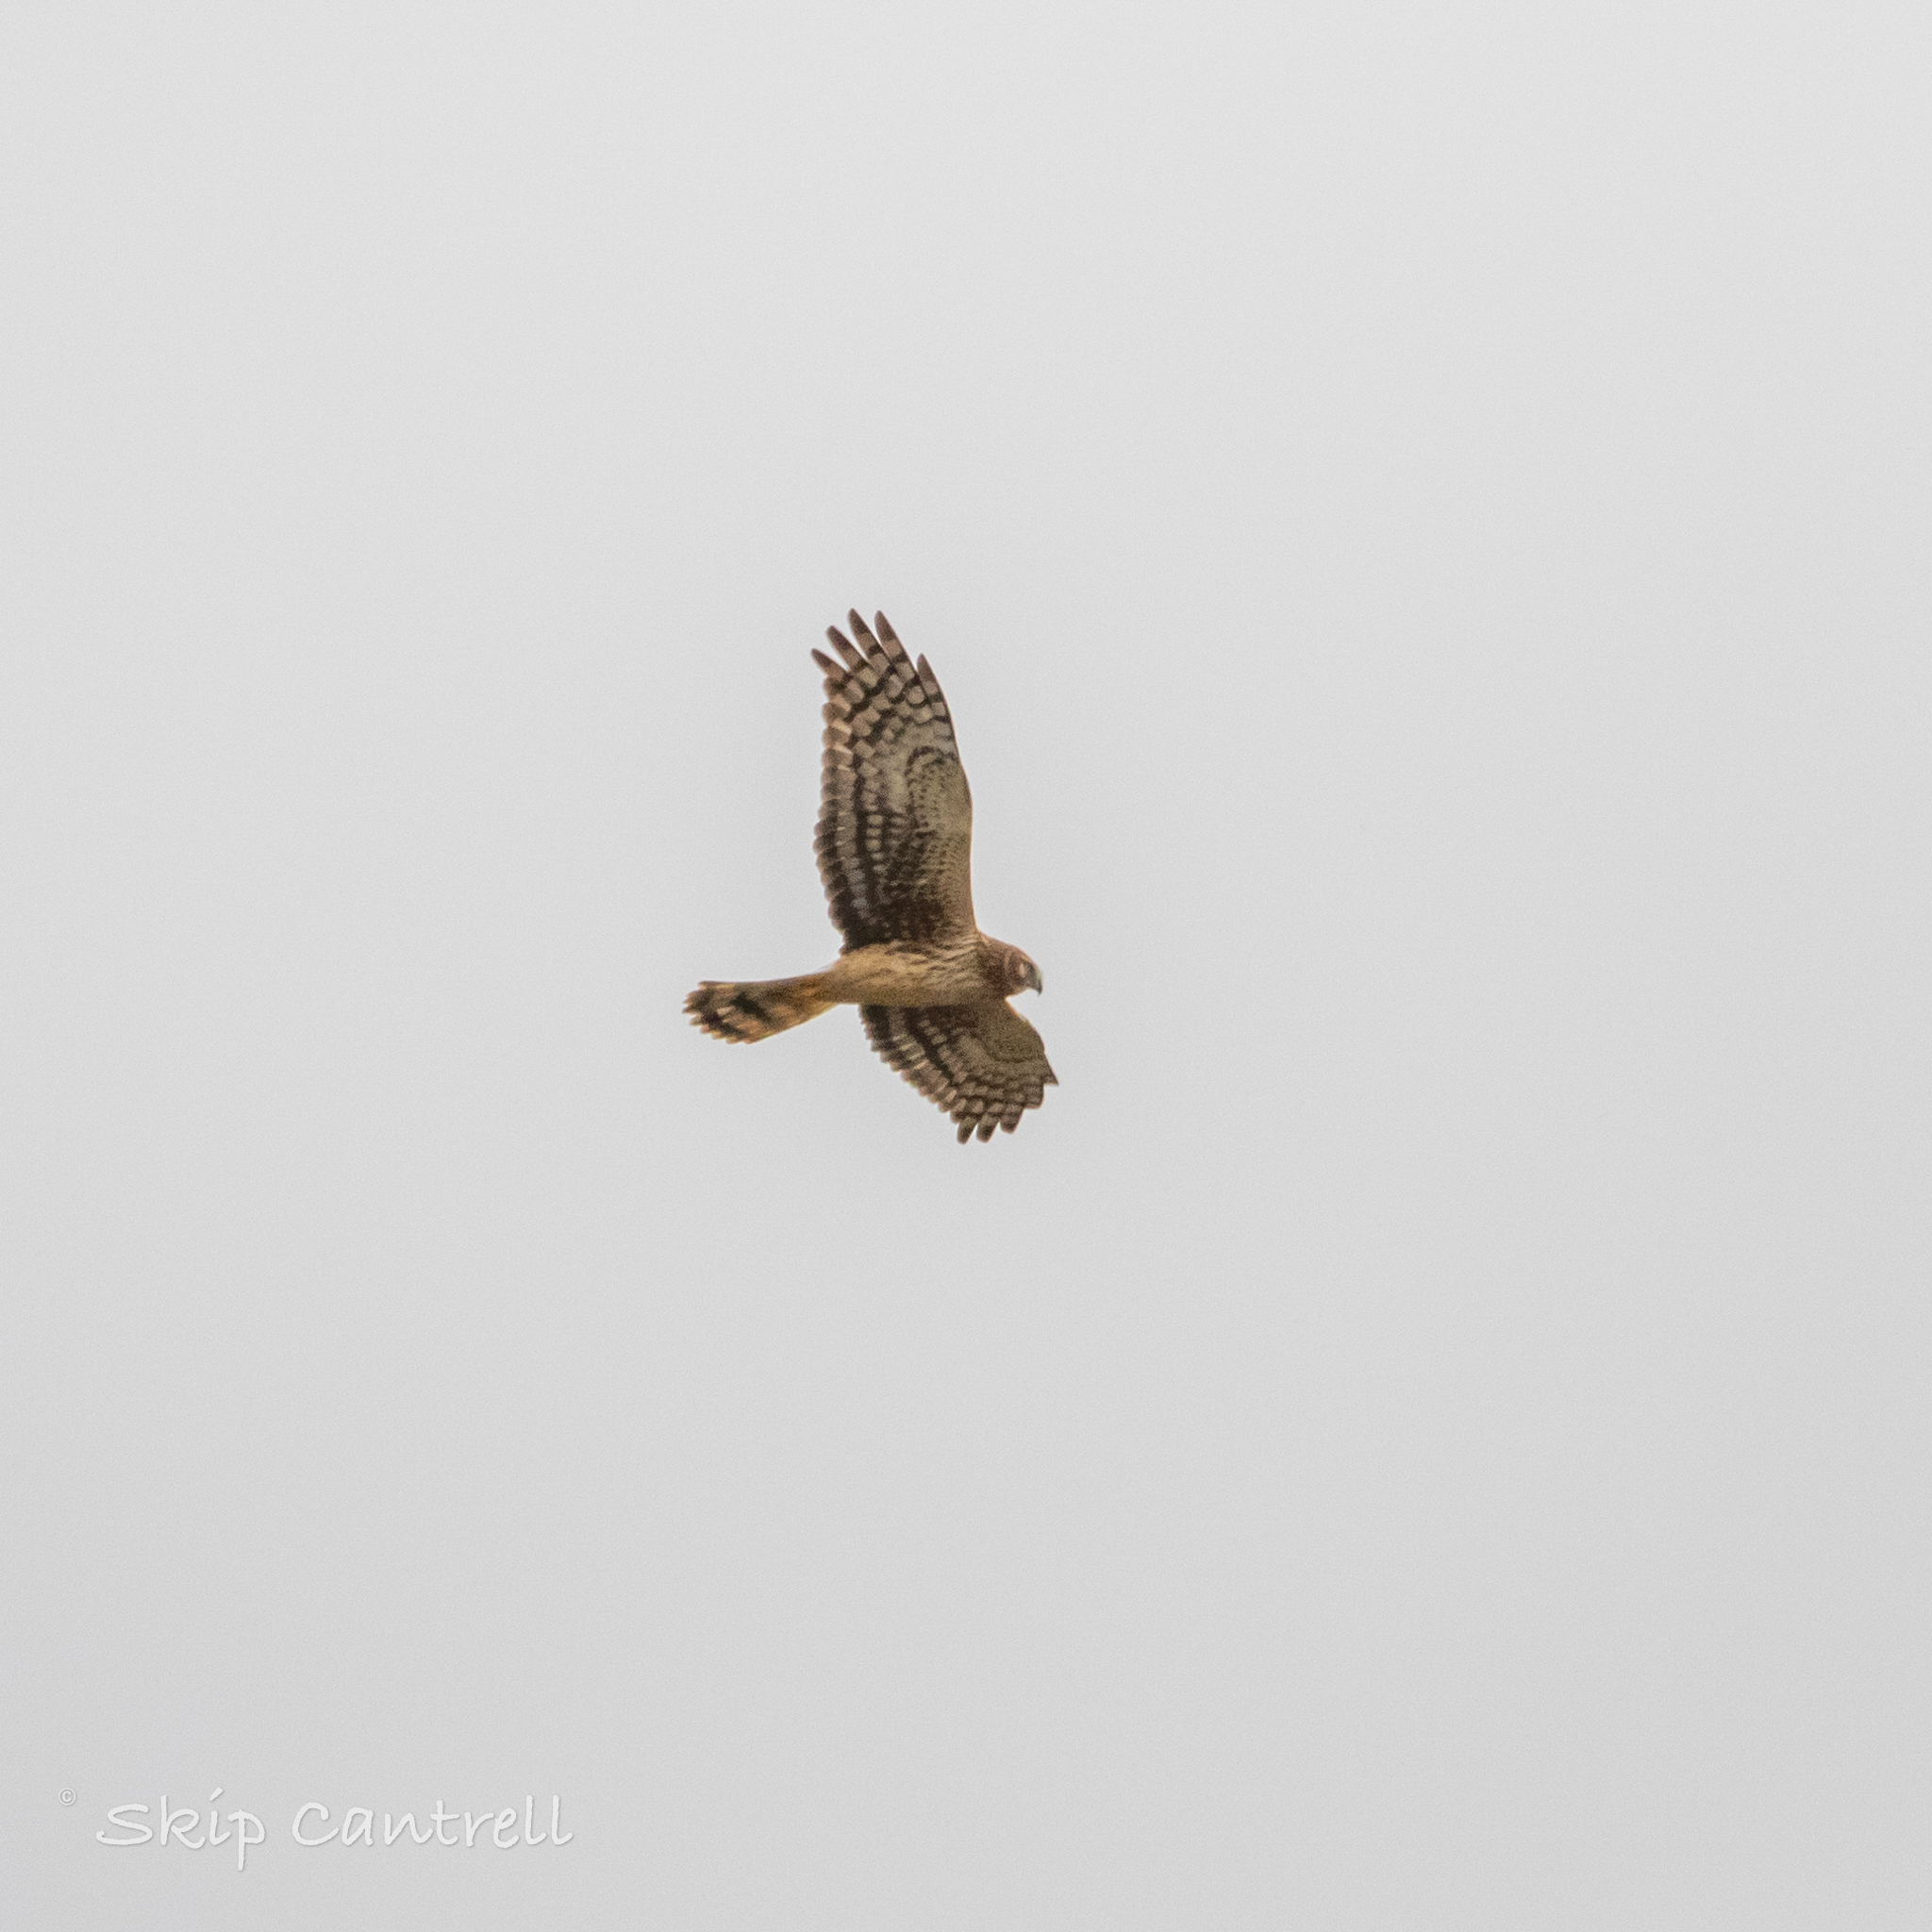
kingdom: Animalia
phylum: Chordata
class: Aves
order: Accipitriformes
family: Accipitridae
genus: Circus
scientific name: Circus cyaneus
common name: Hen harrier
